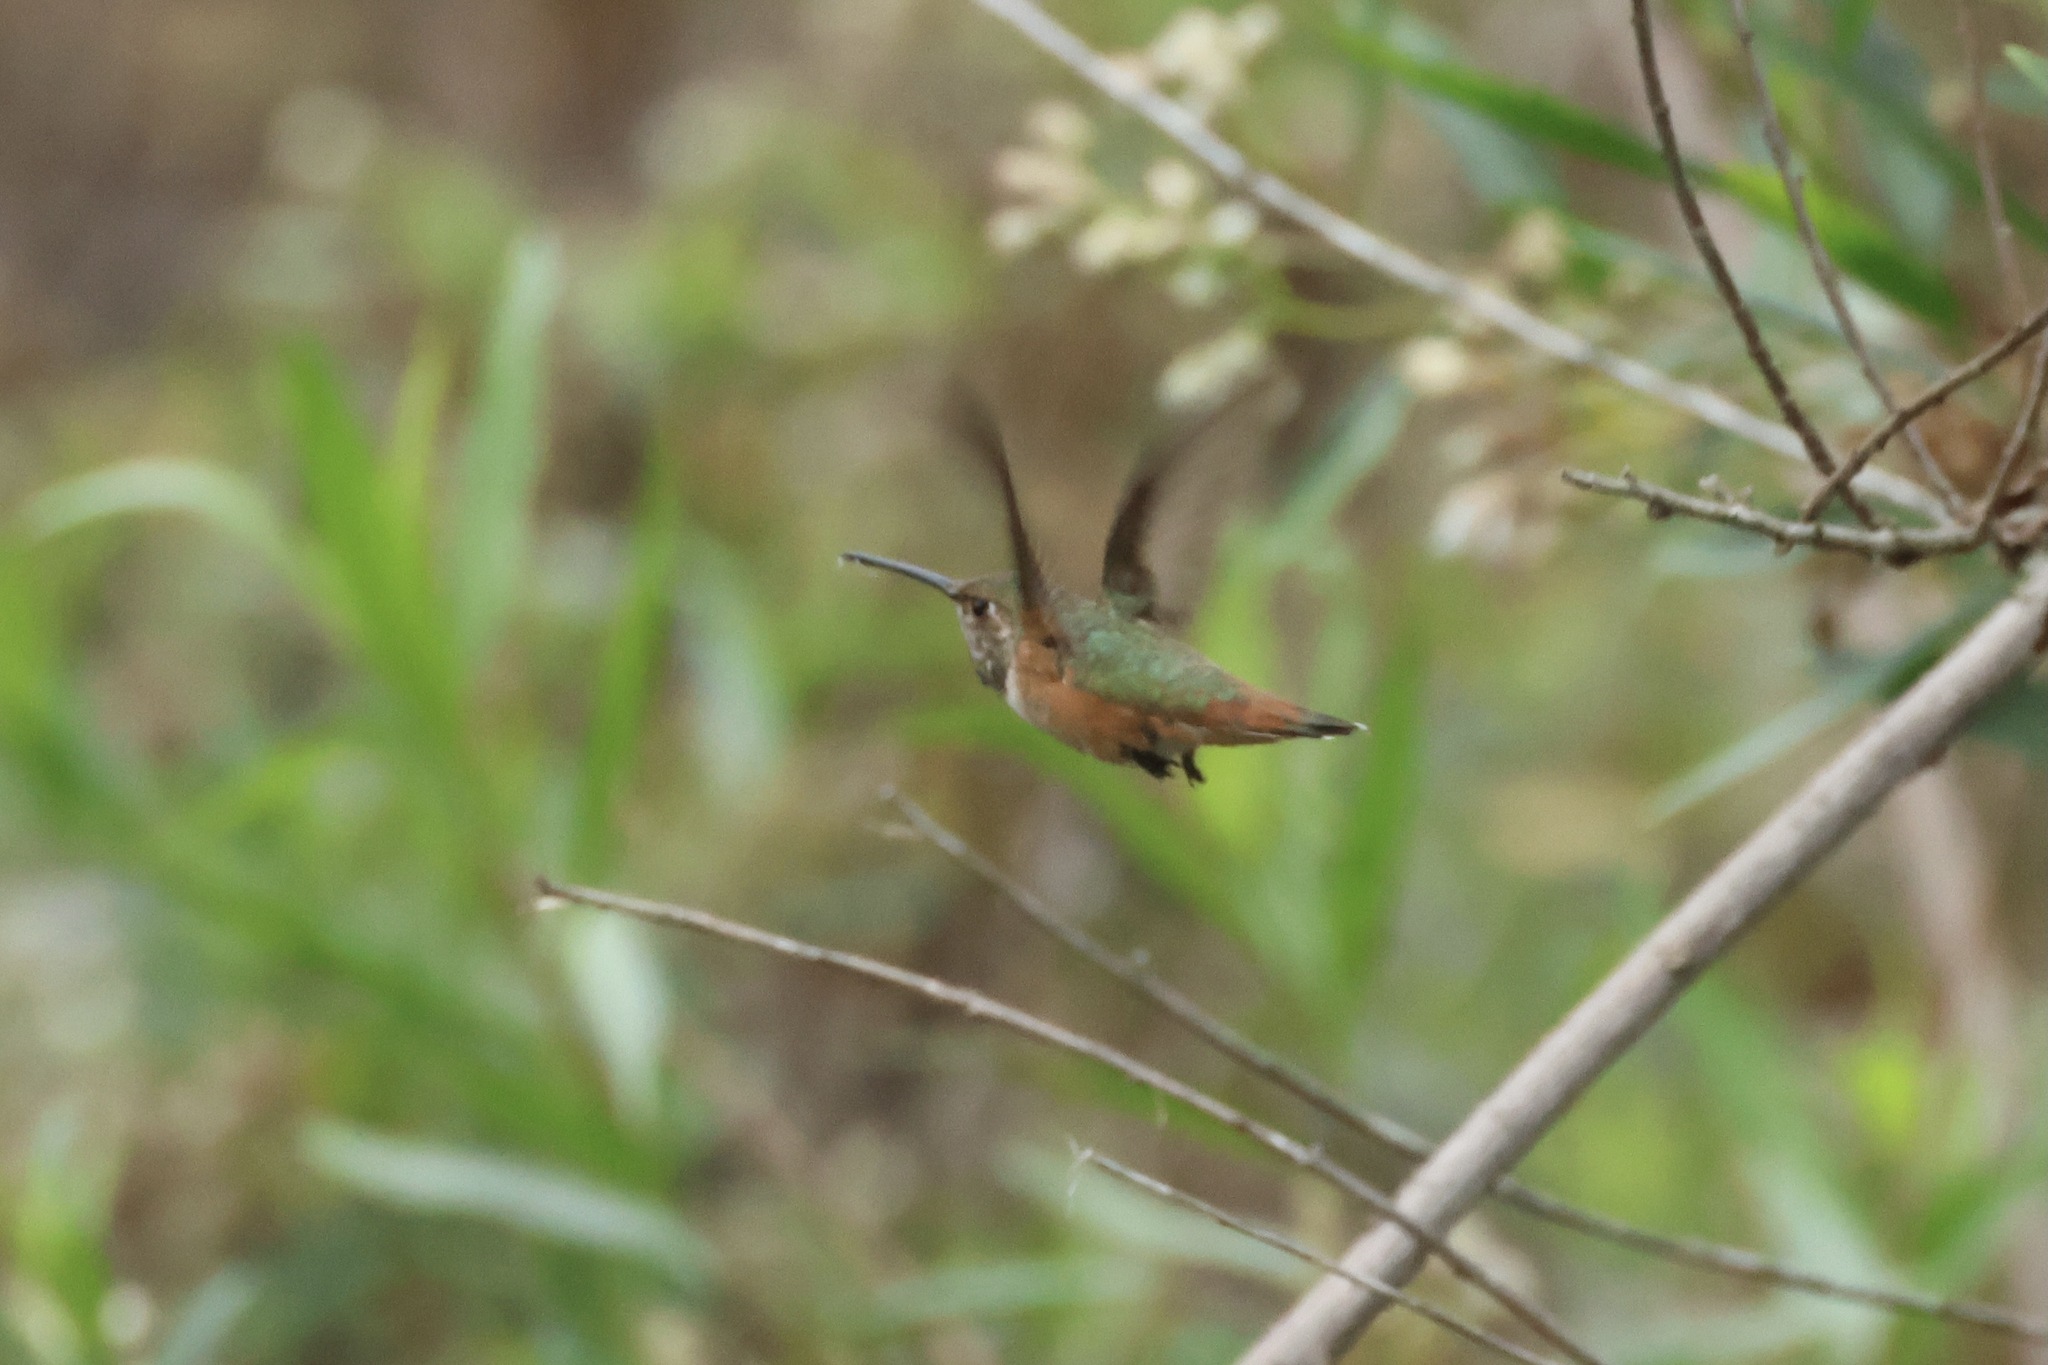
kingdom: Animalia
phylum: Chordata
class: Aves
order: Apodiformes
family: Trochilidae
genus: Selasphorus
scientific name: Selasphorus sasin
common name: Allen's hummingbird
